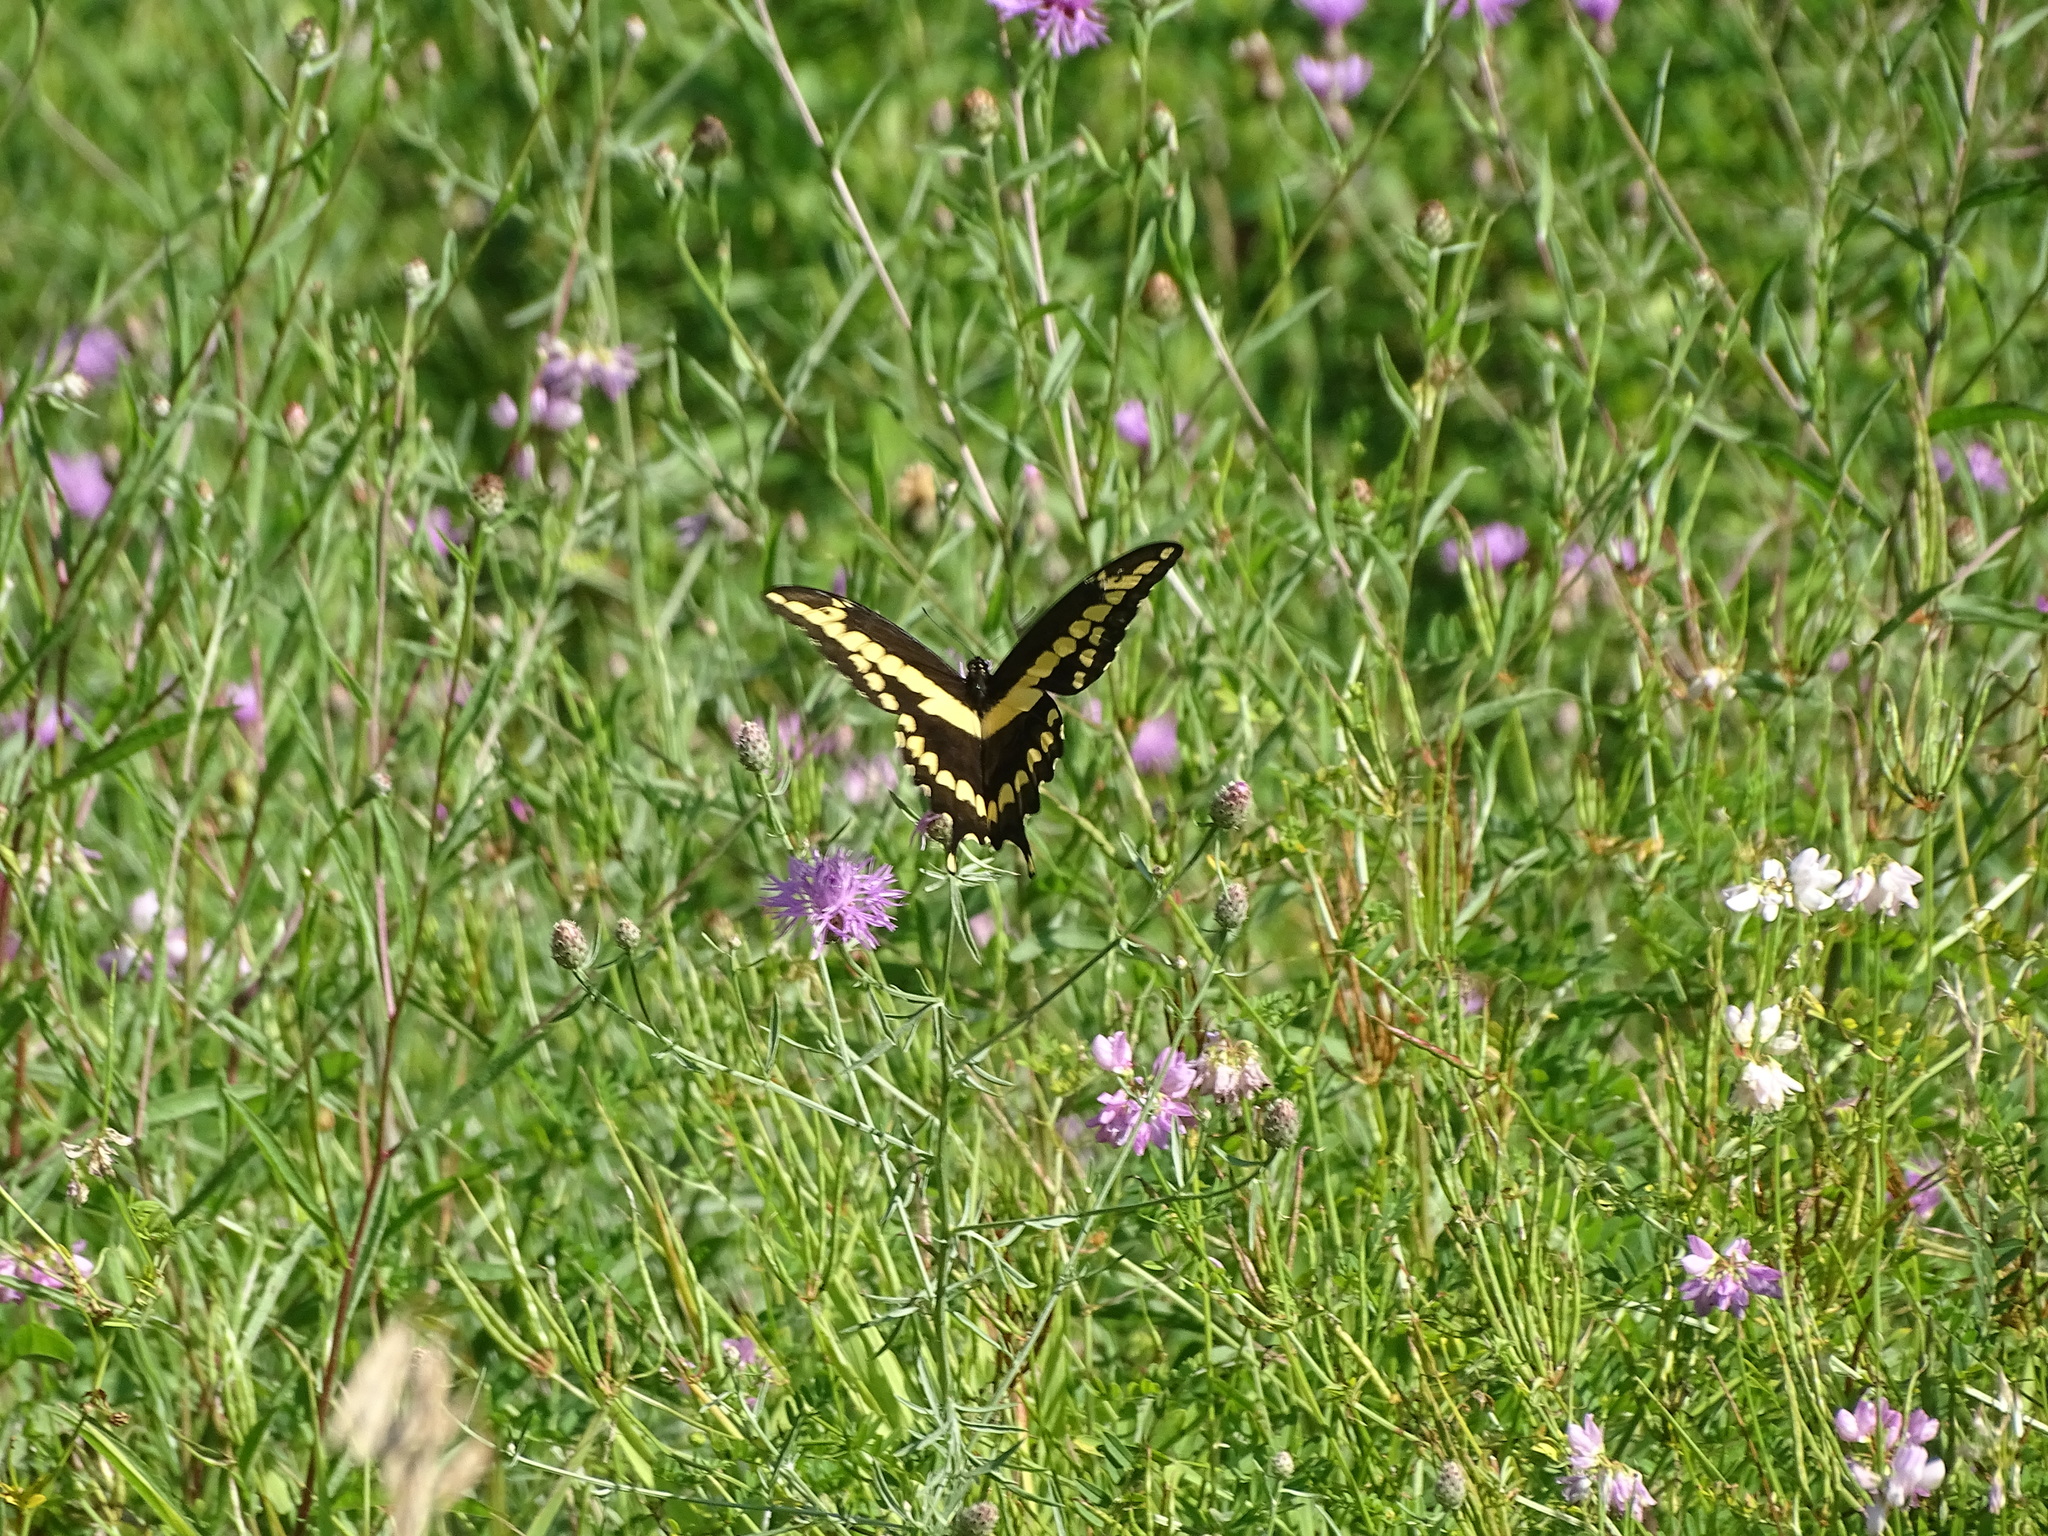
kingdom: Animalia
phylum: Arthropoda
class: Insecta
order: Lepidoptera
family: Papilionidae
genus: Papilio
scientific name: Papilio cresphontes
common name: Giant swallowtail
